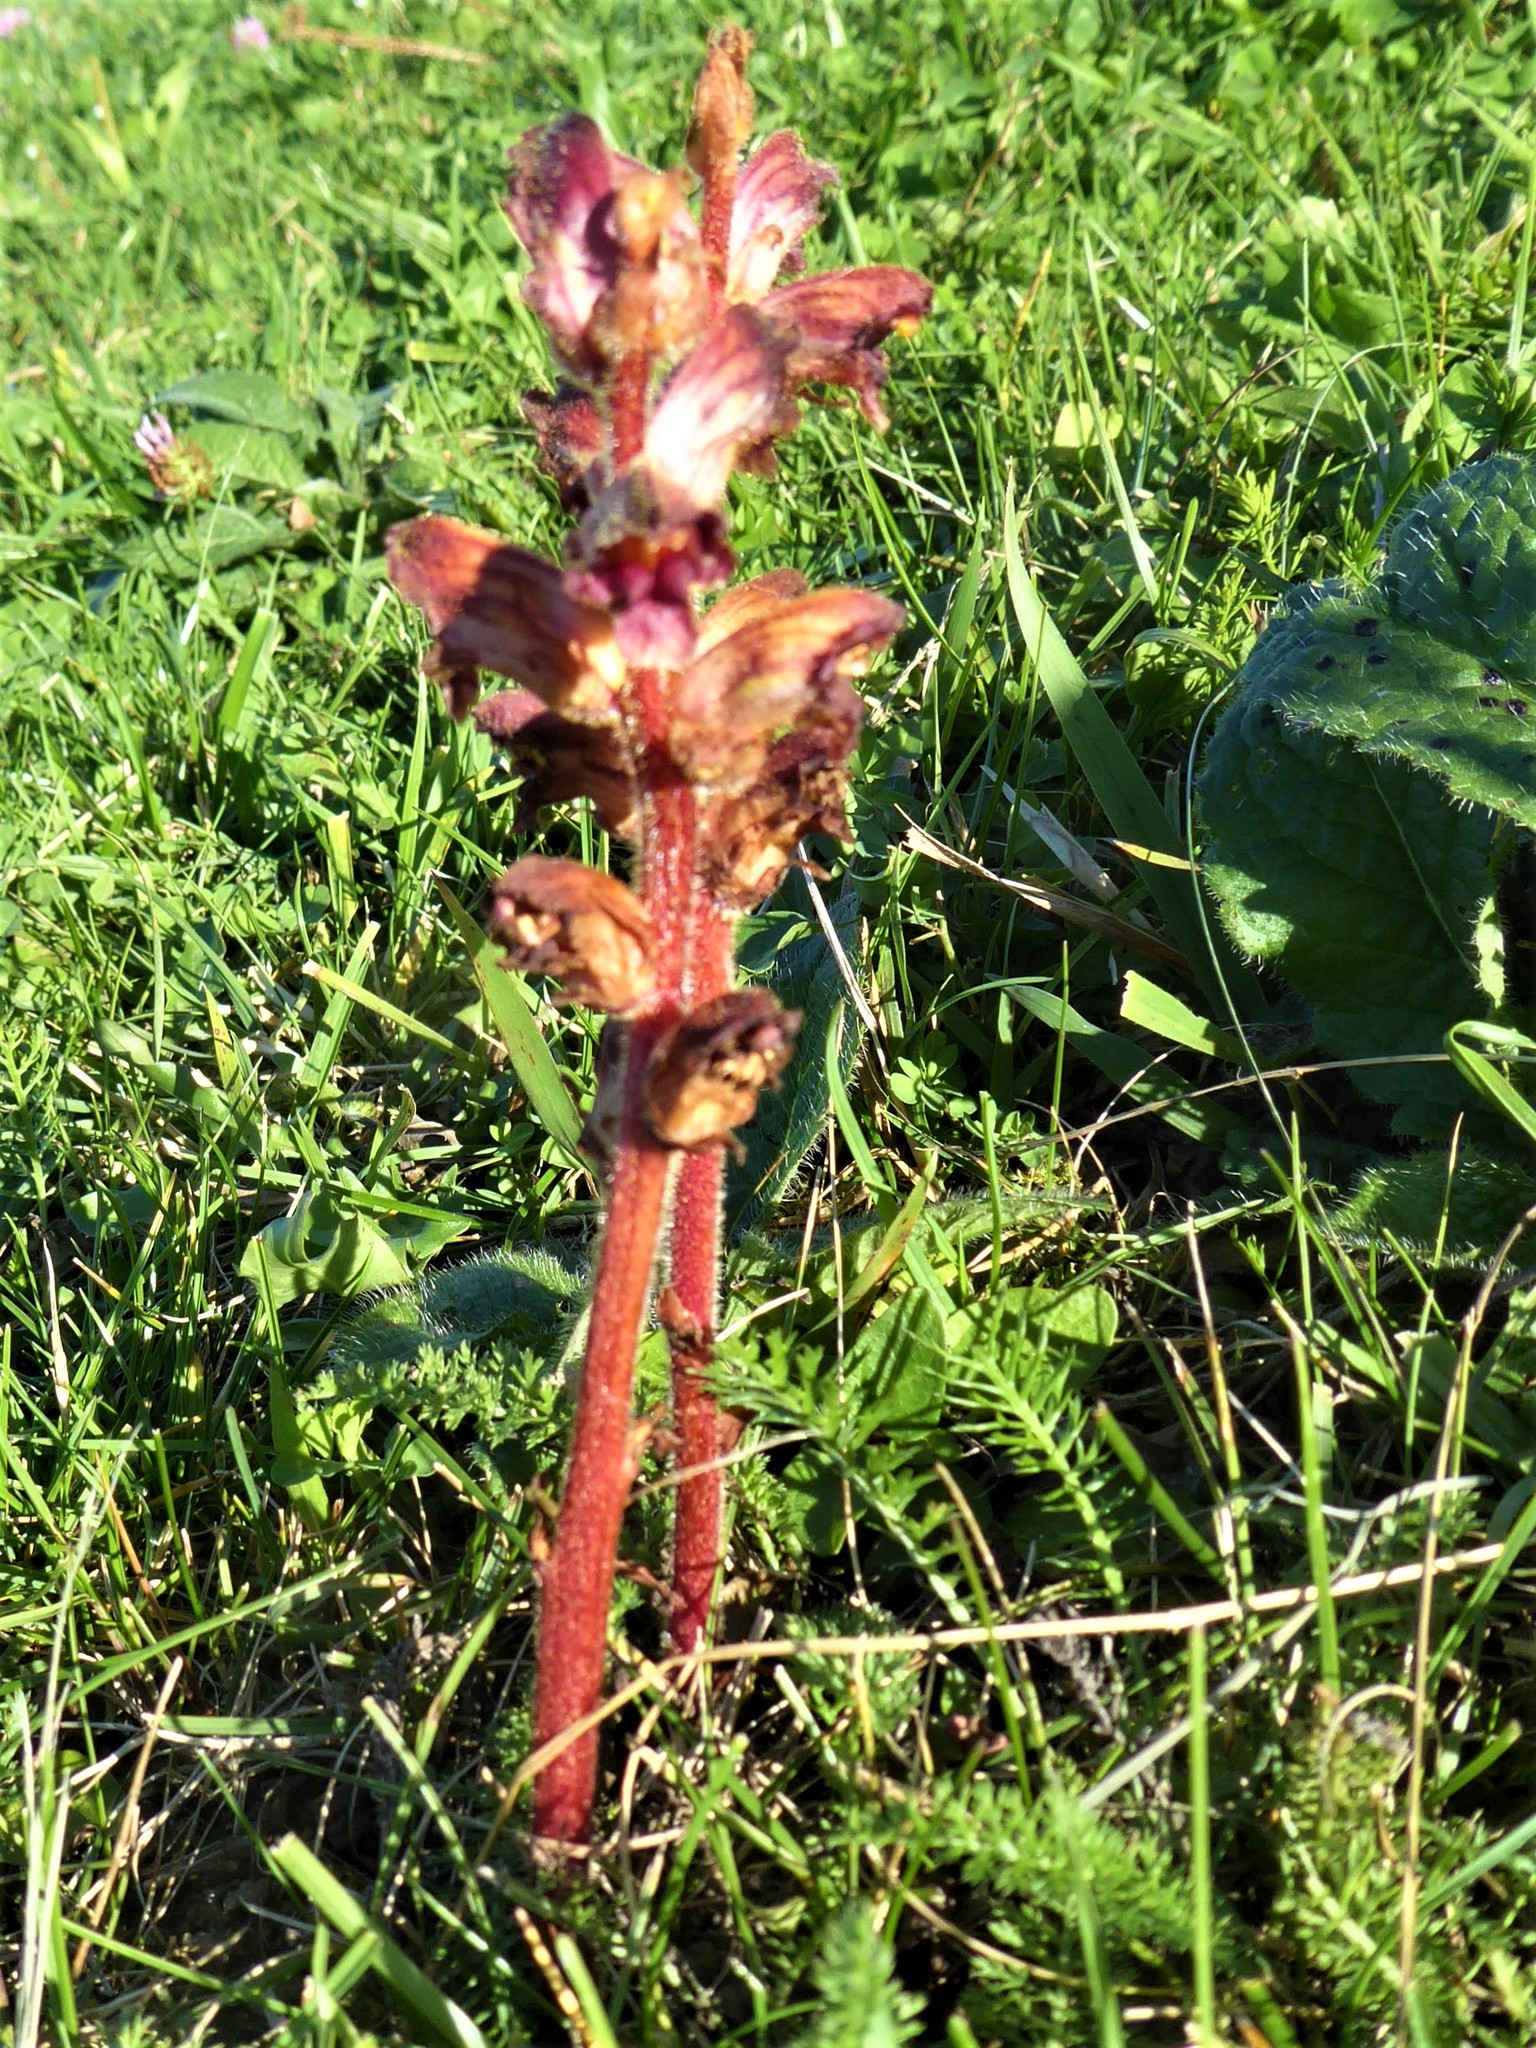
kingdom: Plantae
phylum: Tracheophyta
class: Magnoliopsida
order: Lamiales
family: Orobanchaceae
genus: Orobanche
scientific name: Orobanche gracilis
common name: Slender broomrape
